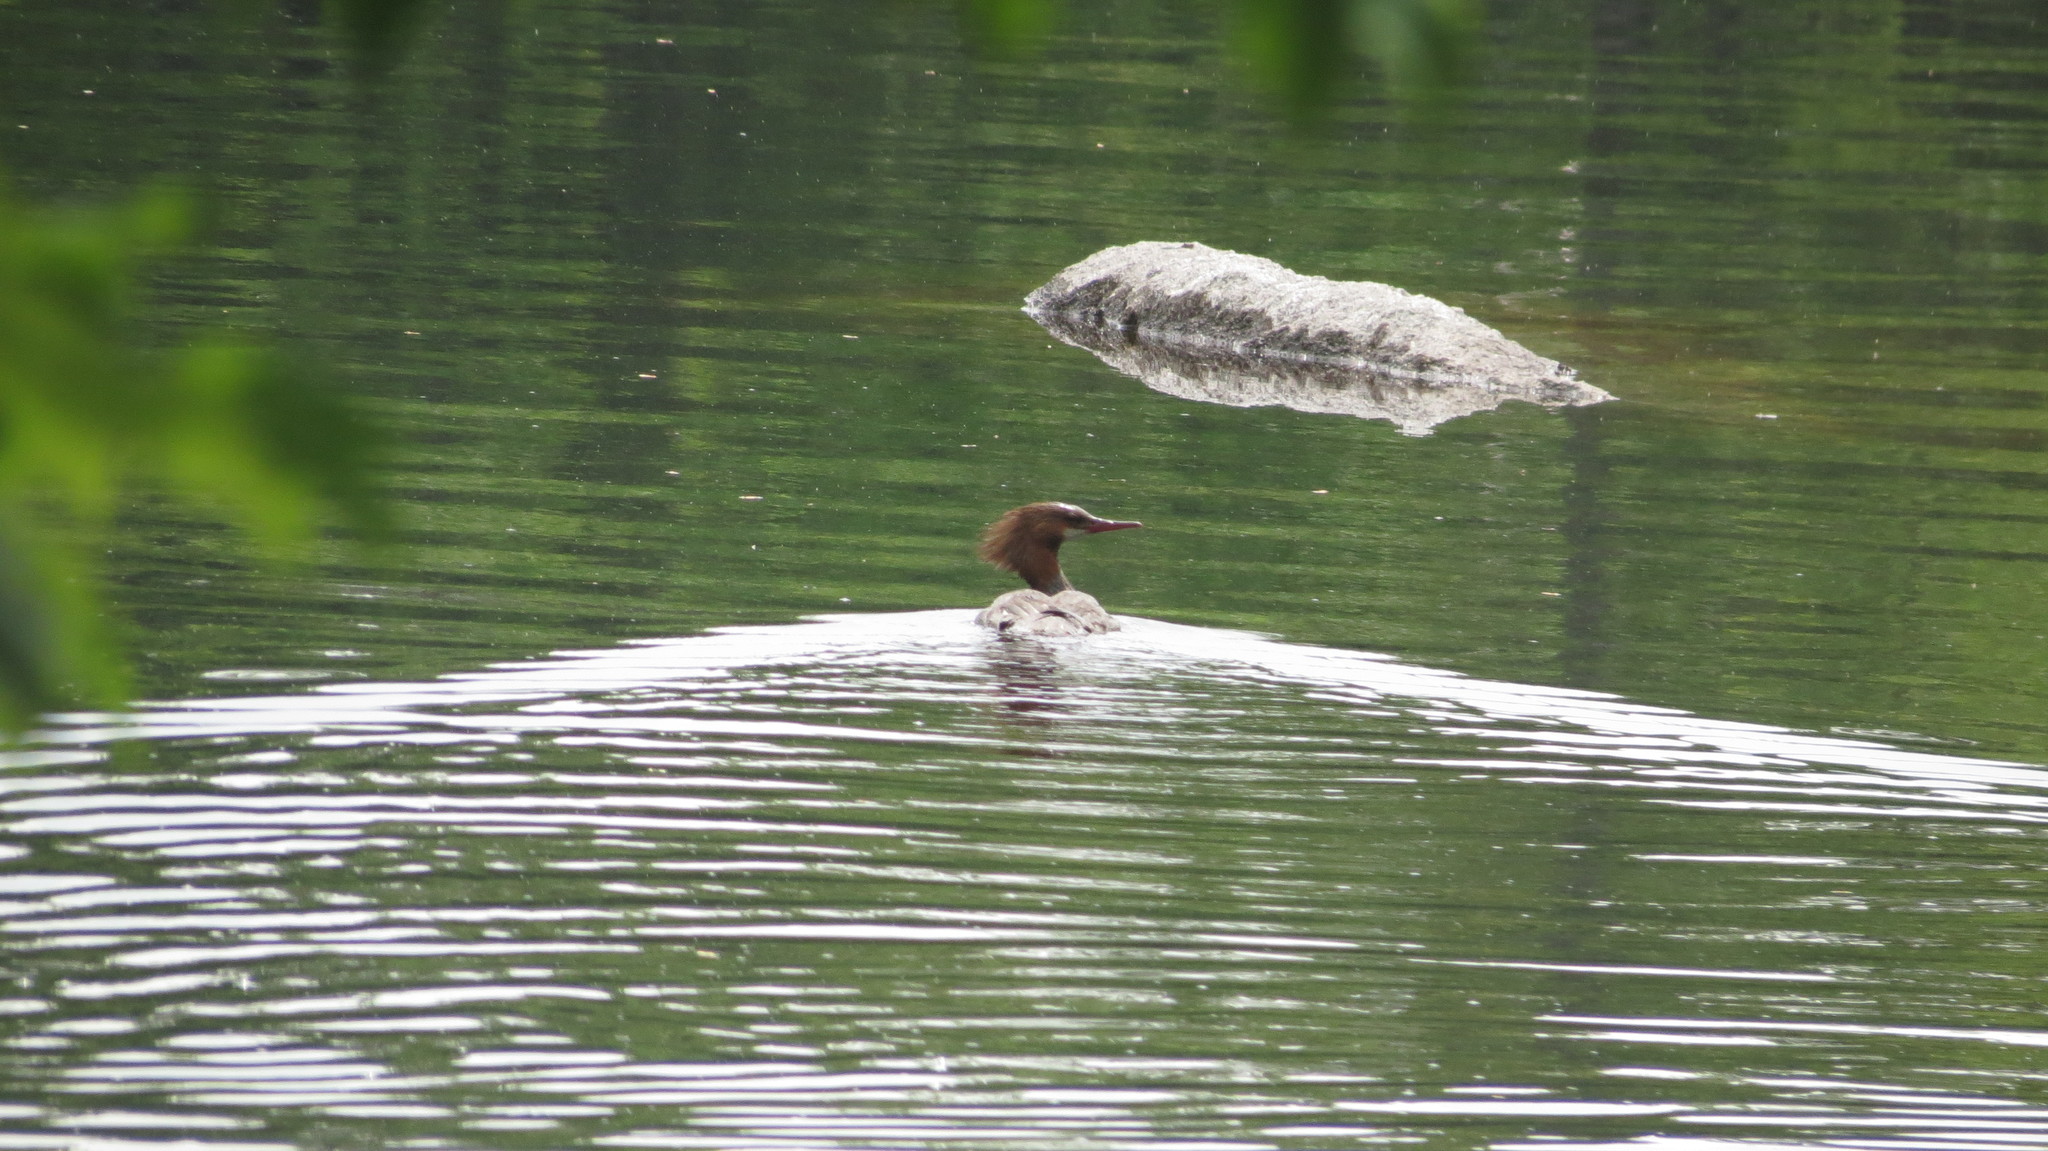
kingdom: Animalia
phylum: Chordata
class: Aves
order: Anseriformes
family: Anatidae
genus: Mergus
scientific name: Mergus merganser
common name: Common merganser
